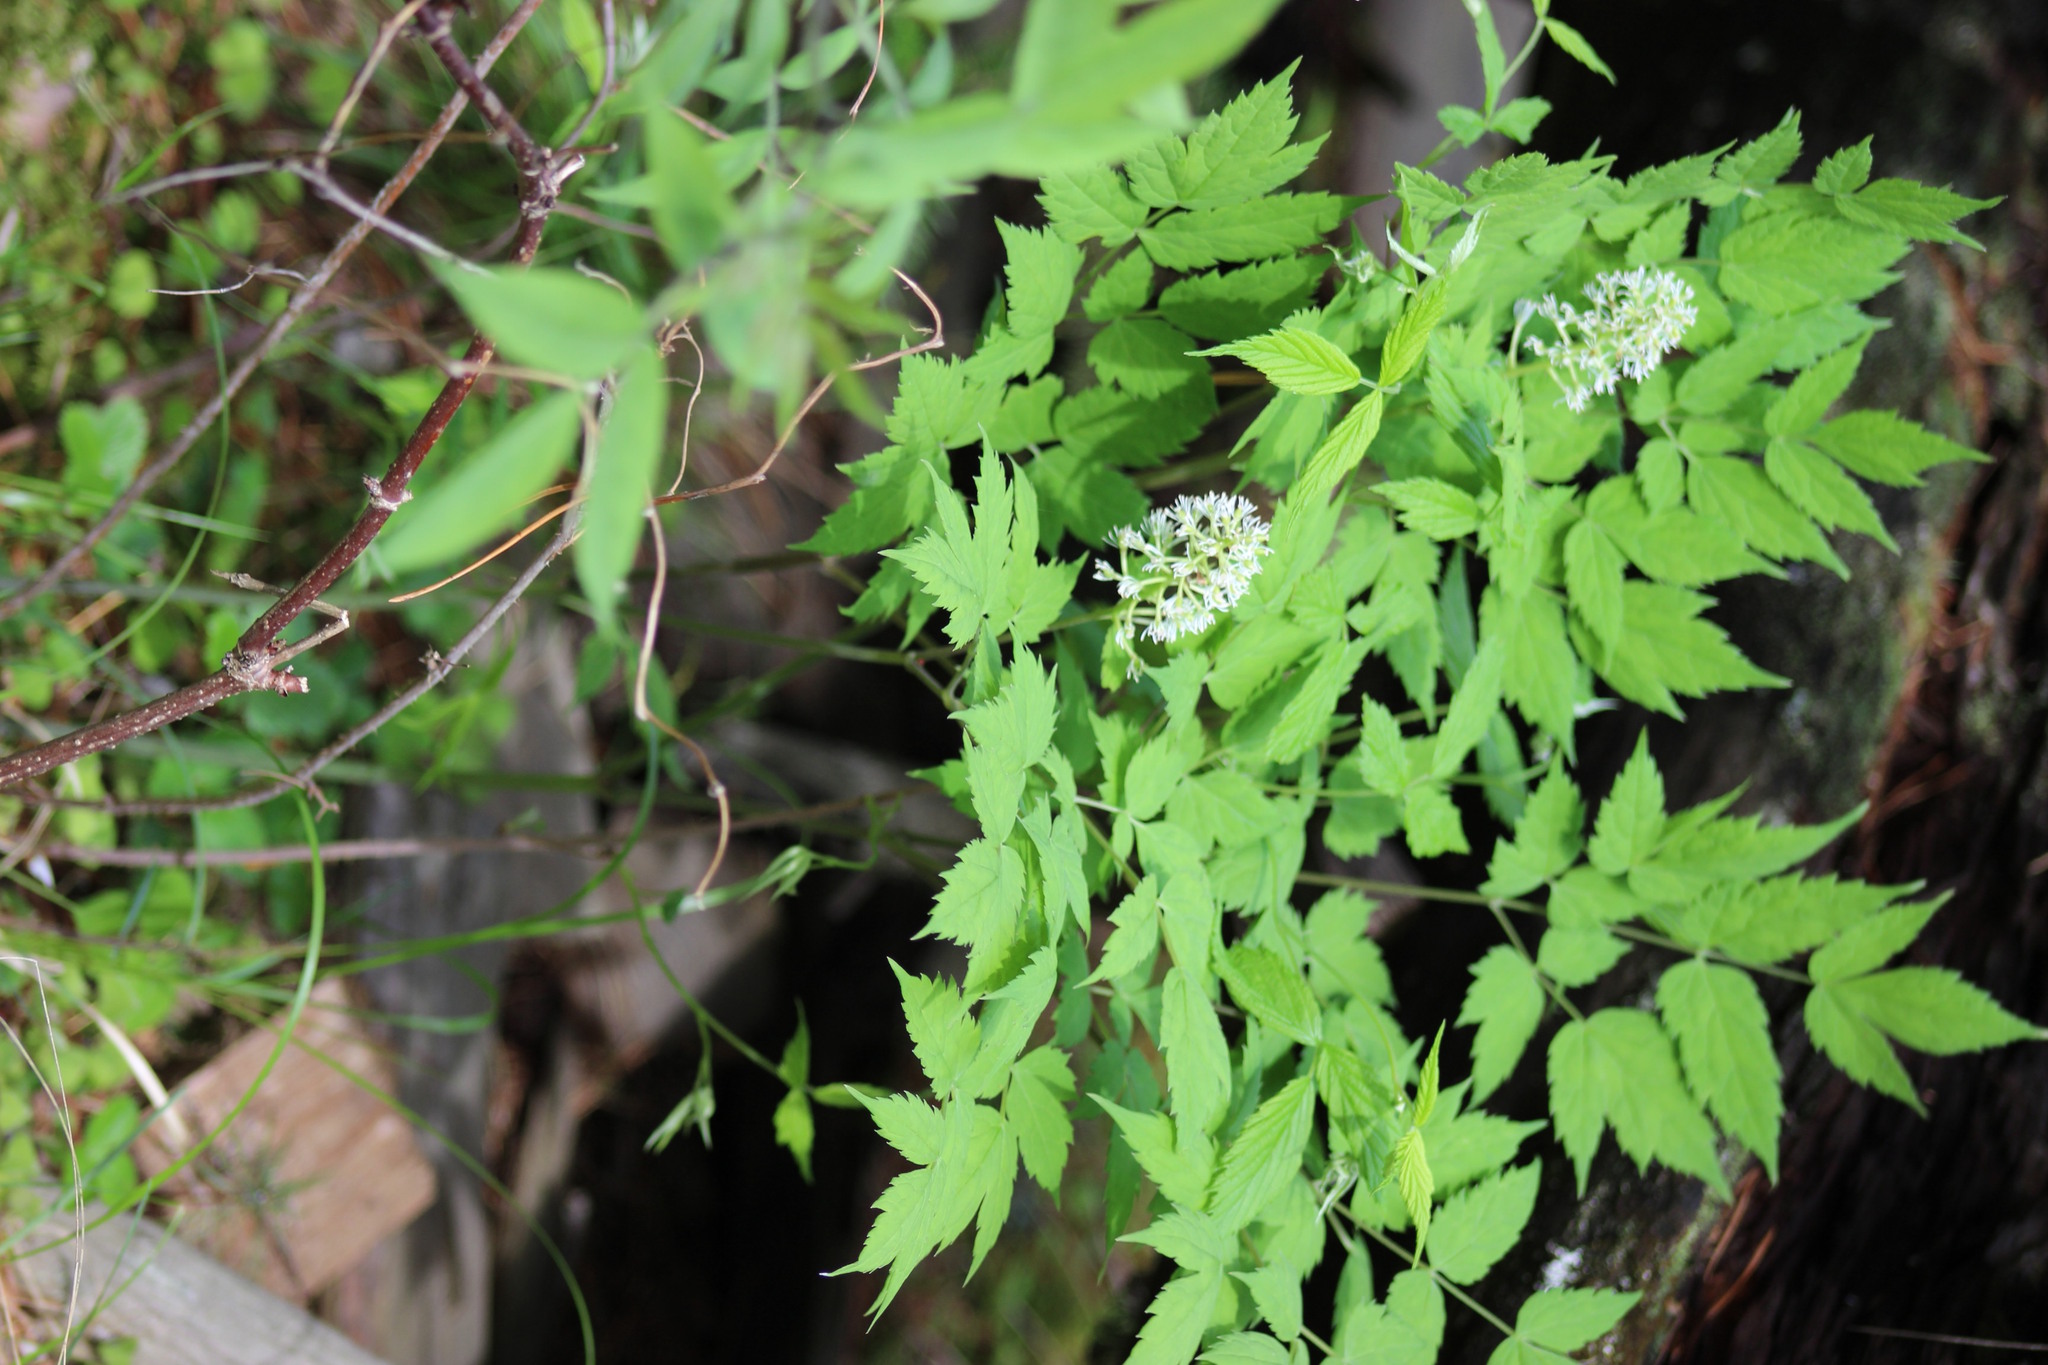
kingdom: Plantae
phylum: Tracheophyta
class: Magnoliopsida
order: Ranunculales
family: Ranunculaceae
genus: Actaea
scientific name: Actaea erythrocarpa
